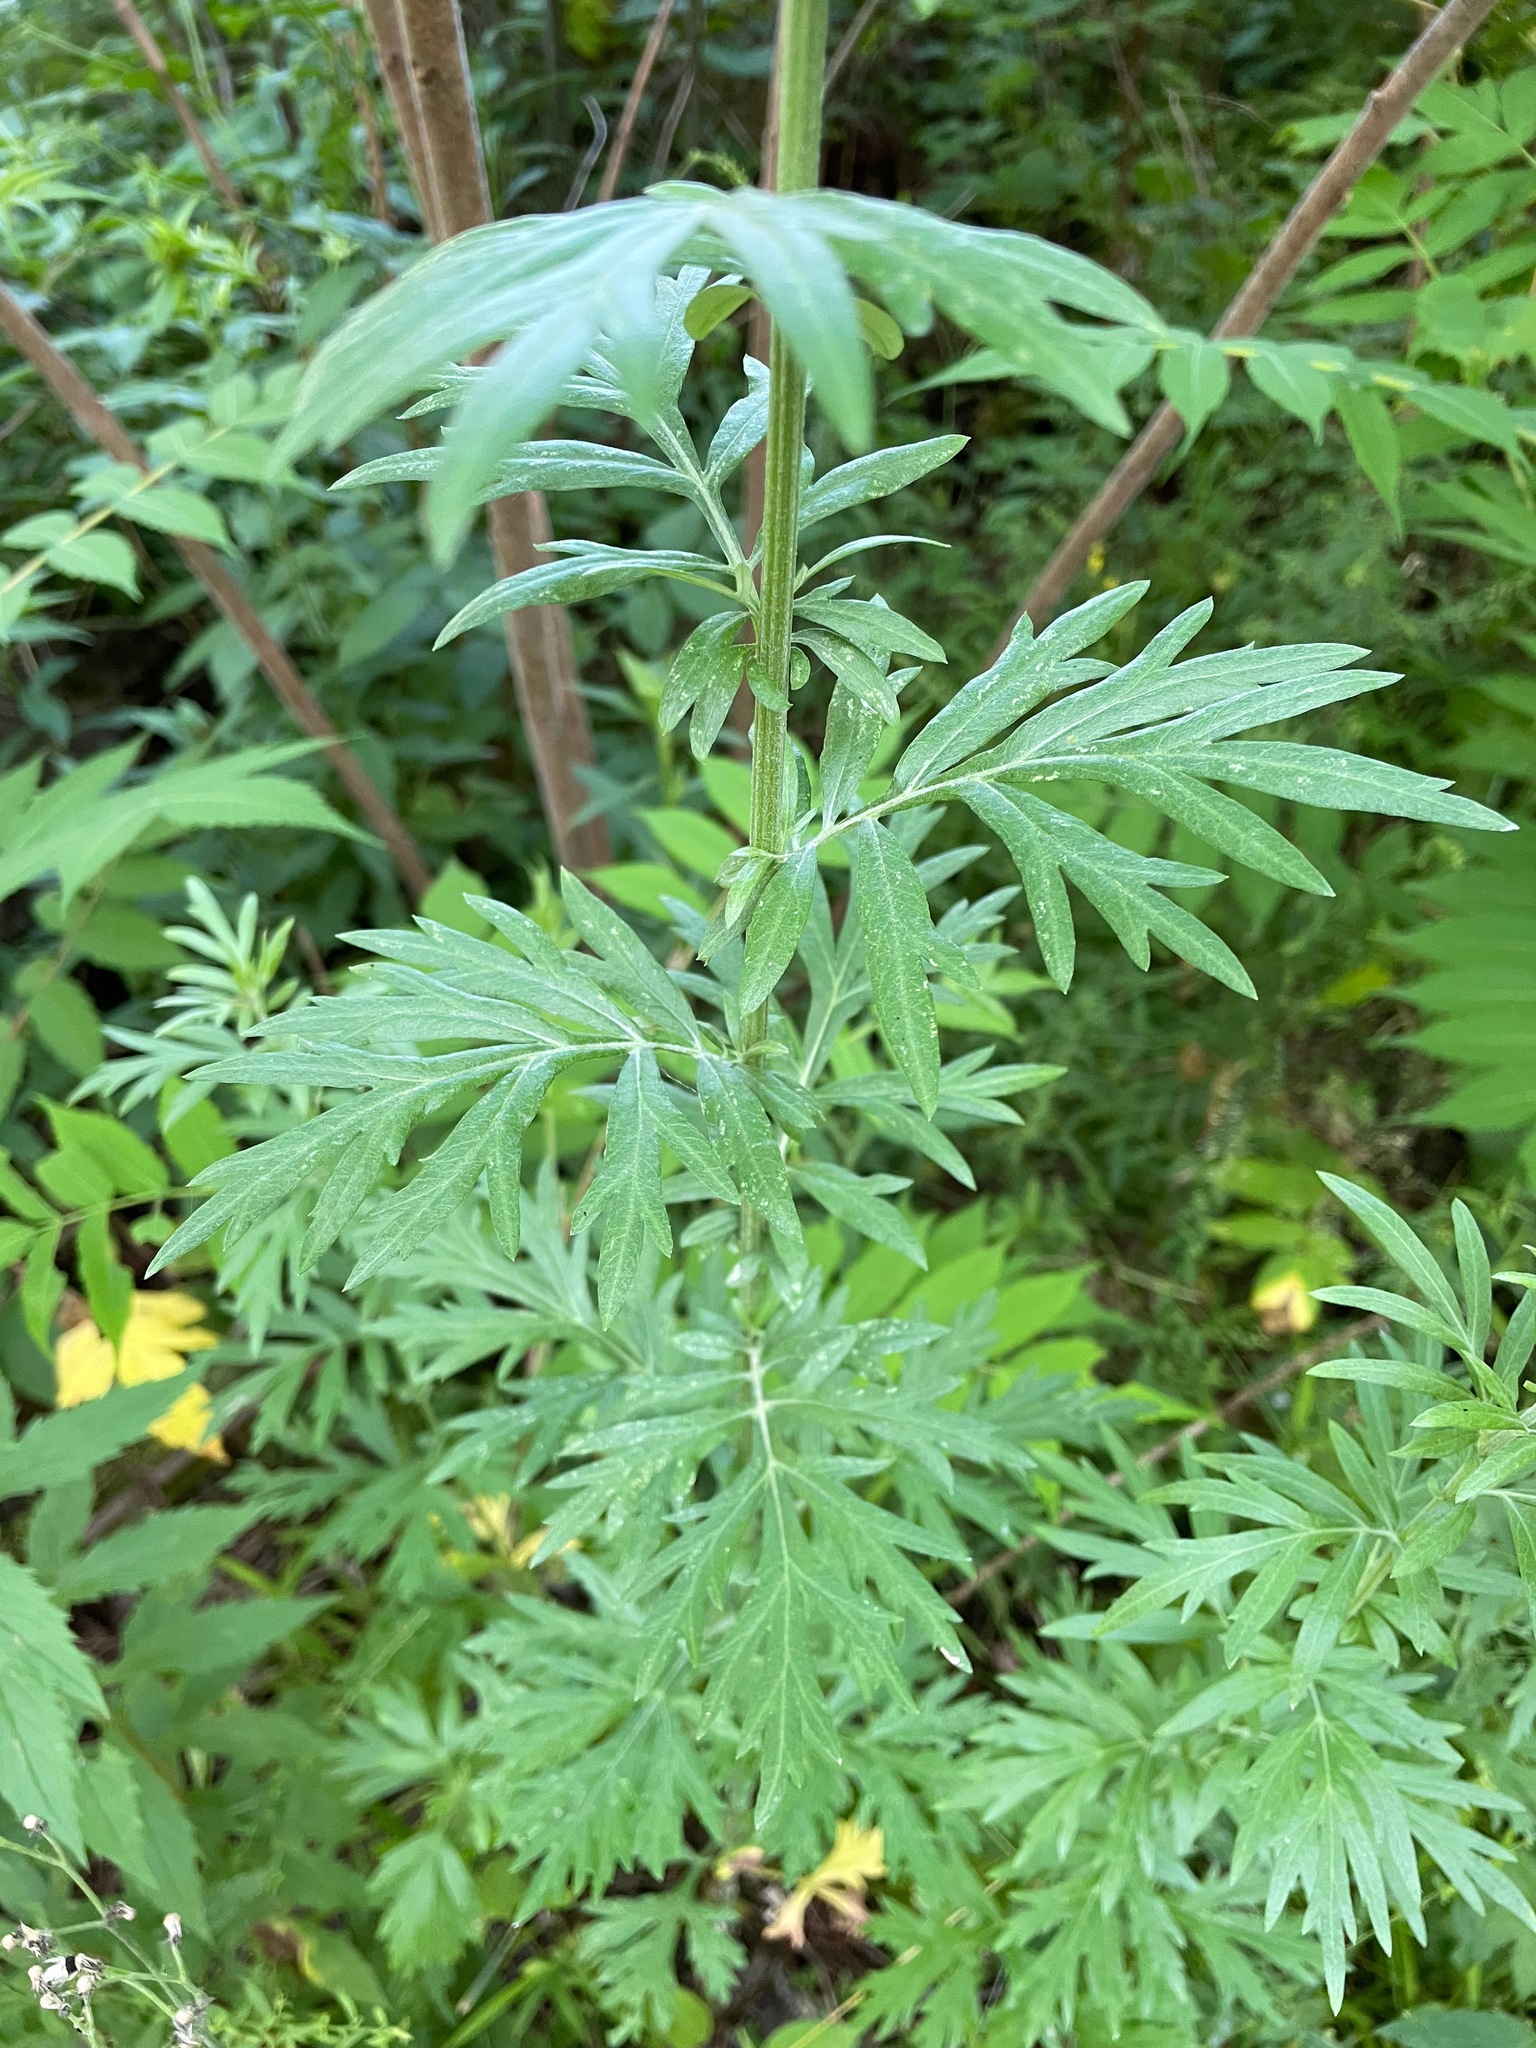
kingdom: Plantae
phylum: Tracheophyta
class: Magnoliopsida
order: Asterales
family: Asteraceae
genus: Artemisia
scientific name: Artemisia vulgaris
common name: Mugwort
